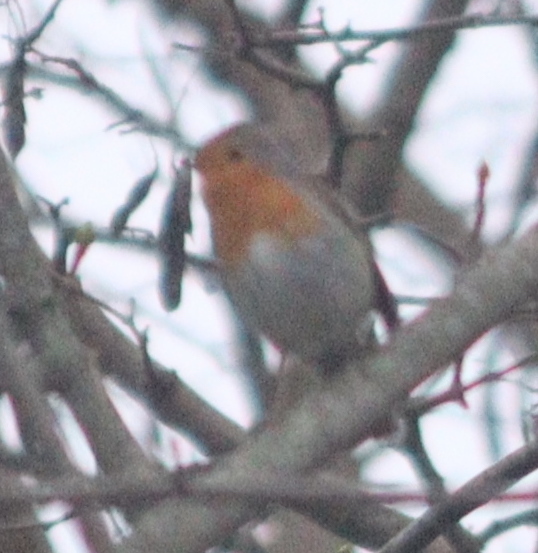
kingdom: Animalia
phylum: Chordata
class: Aves
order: Passeriformes
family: Muscicapidae
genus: Erithacus
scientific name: Erithacus rubecula
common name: European robin
